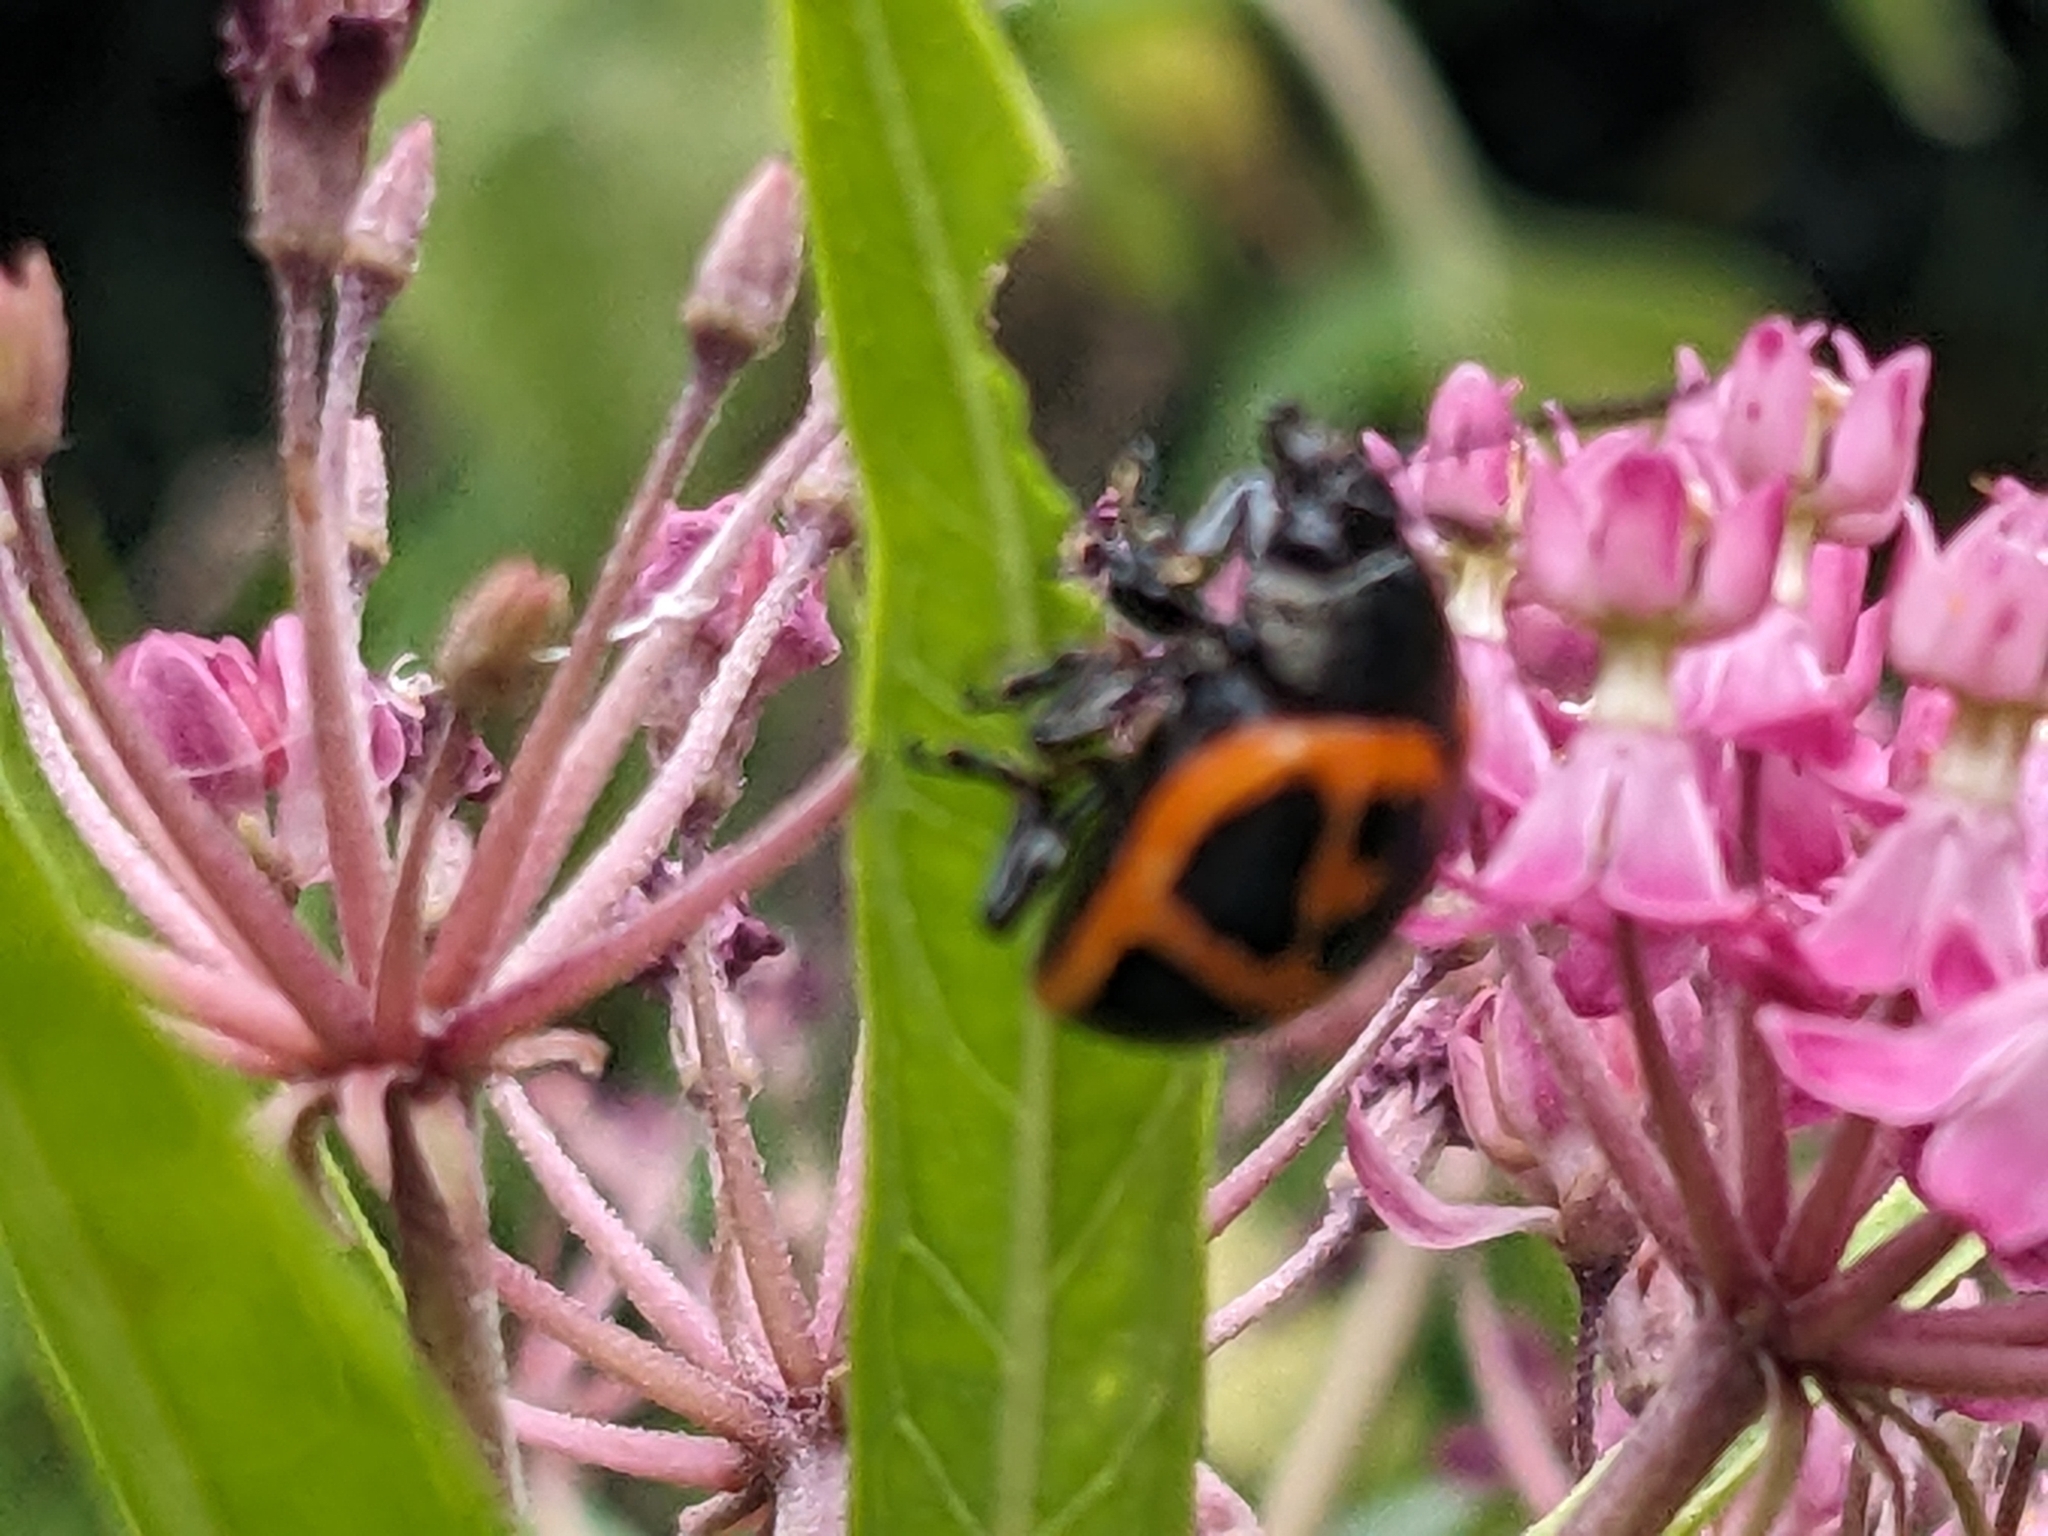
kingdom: Animalia
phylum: Arthropoda
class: Insecta
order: Coleoptera
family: Chrysomelidae
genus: Labidomera
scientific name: Labidomera clivicollis
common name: Swamp milkweed leaf beetle
